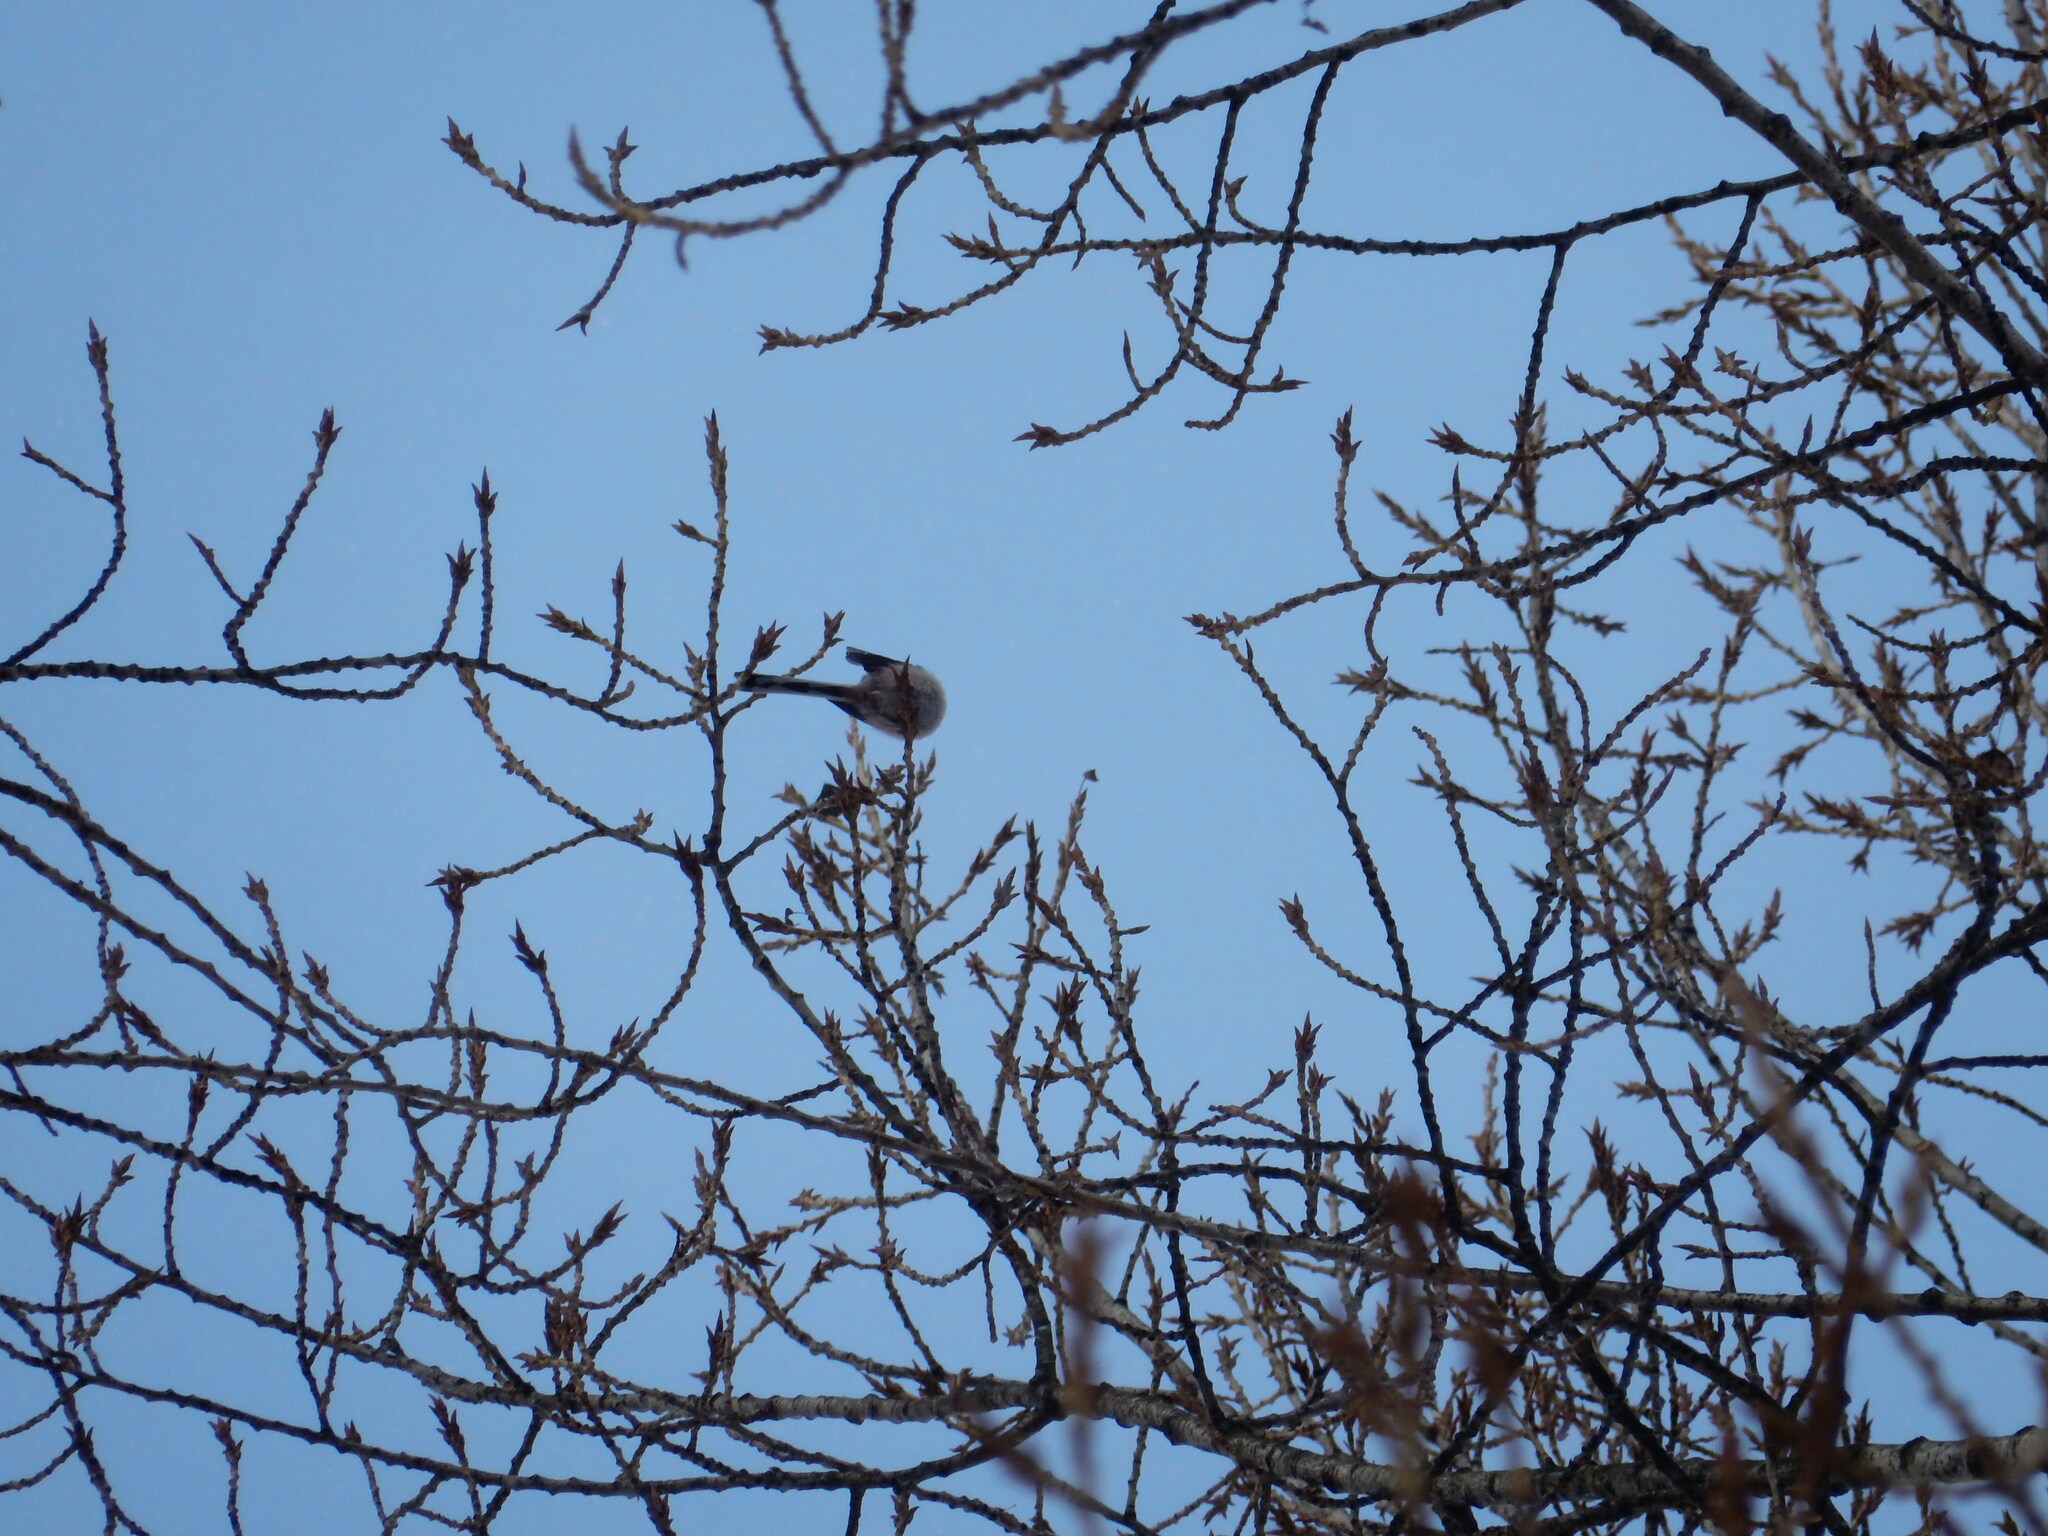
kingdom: Animalia
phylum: Chordata
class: Aves
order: Passeriformes
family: Aegithalidae
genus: Aegithalos
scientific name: Aegithalos caudatus
